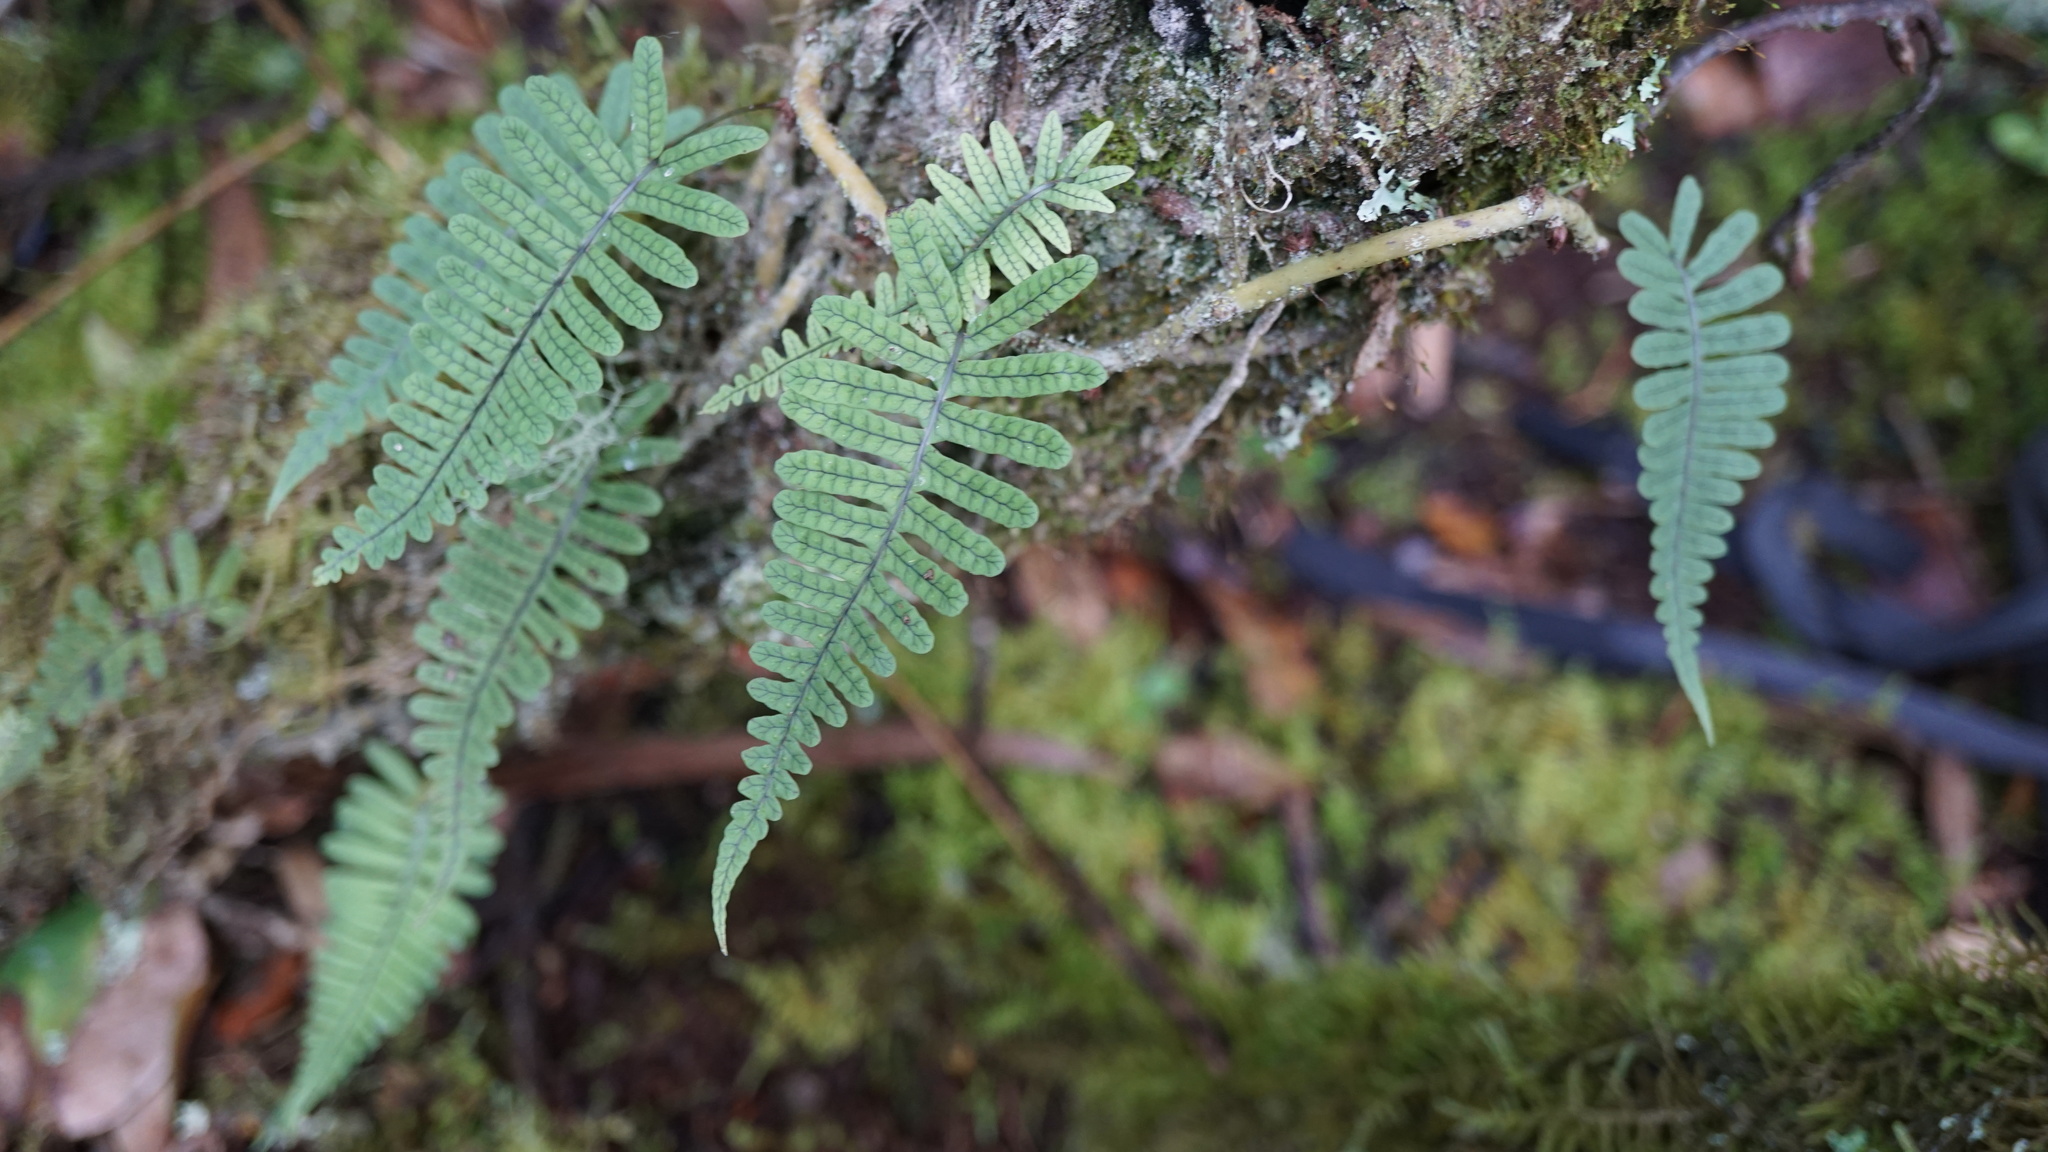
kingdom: Plantae
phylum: Tracheophyta
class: Polypodiopsida
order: Polypodiales
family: Polypodiaceae
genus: Serpocaulon
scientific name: Serpocaulon eleutherophlebium
